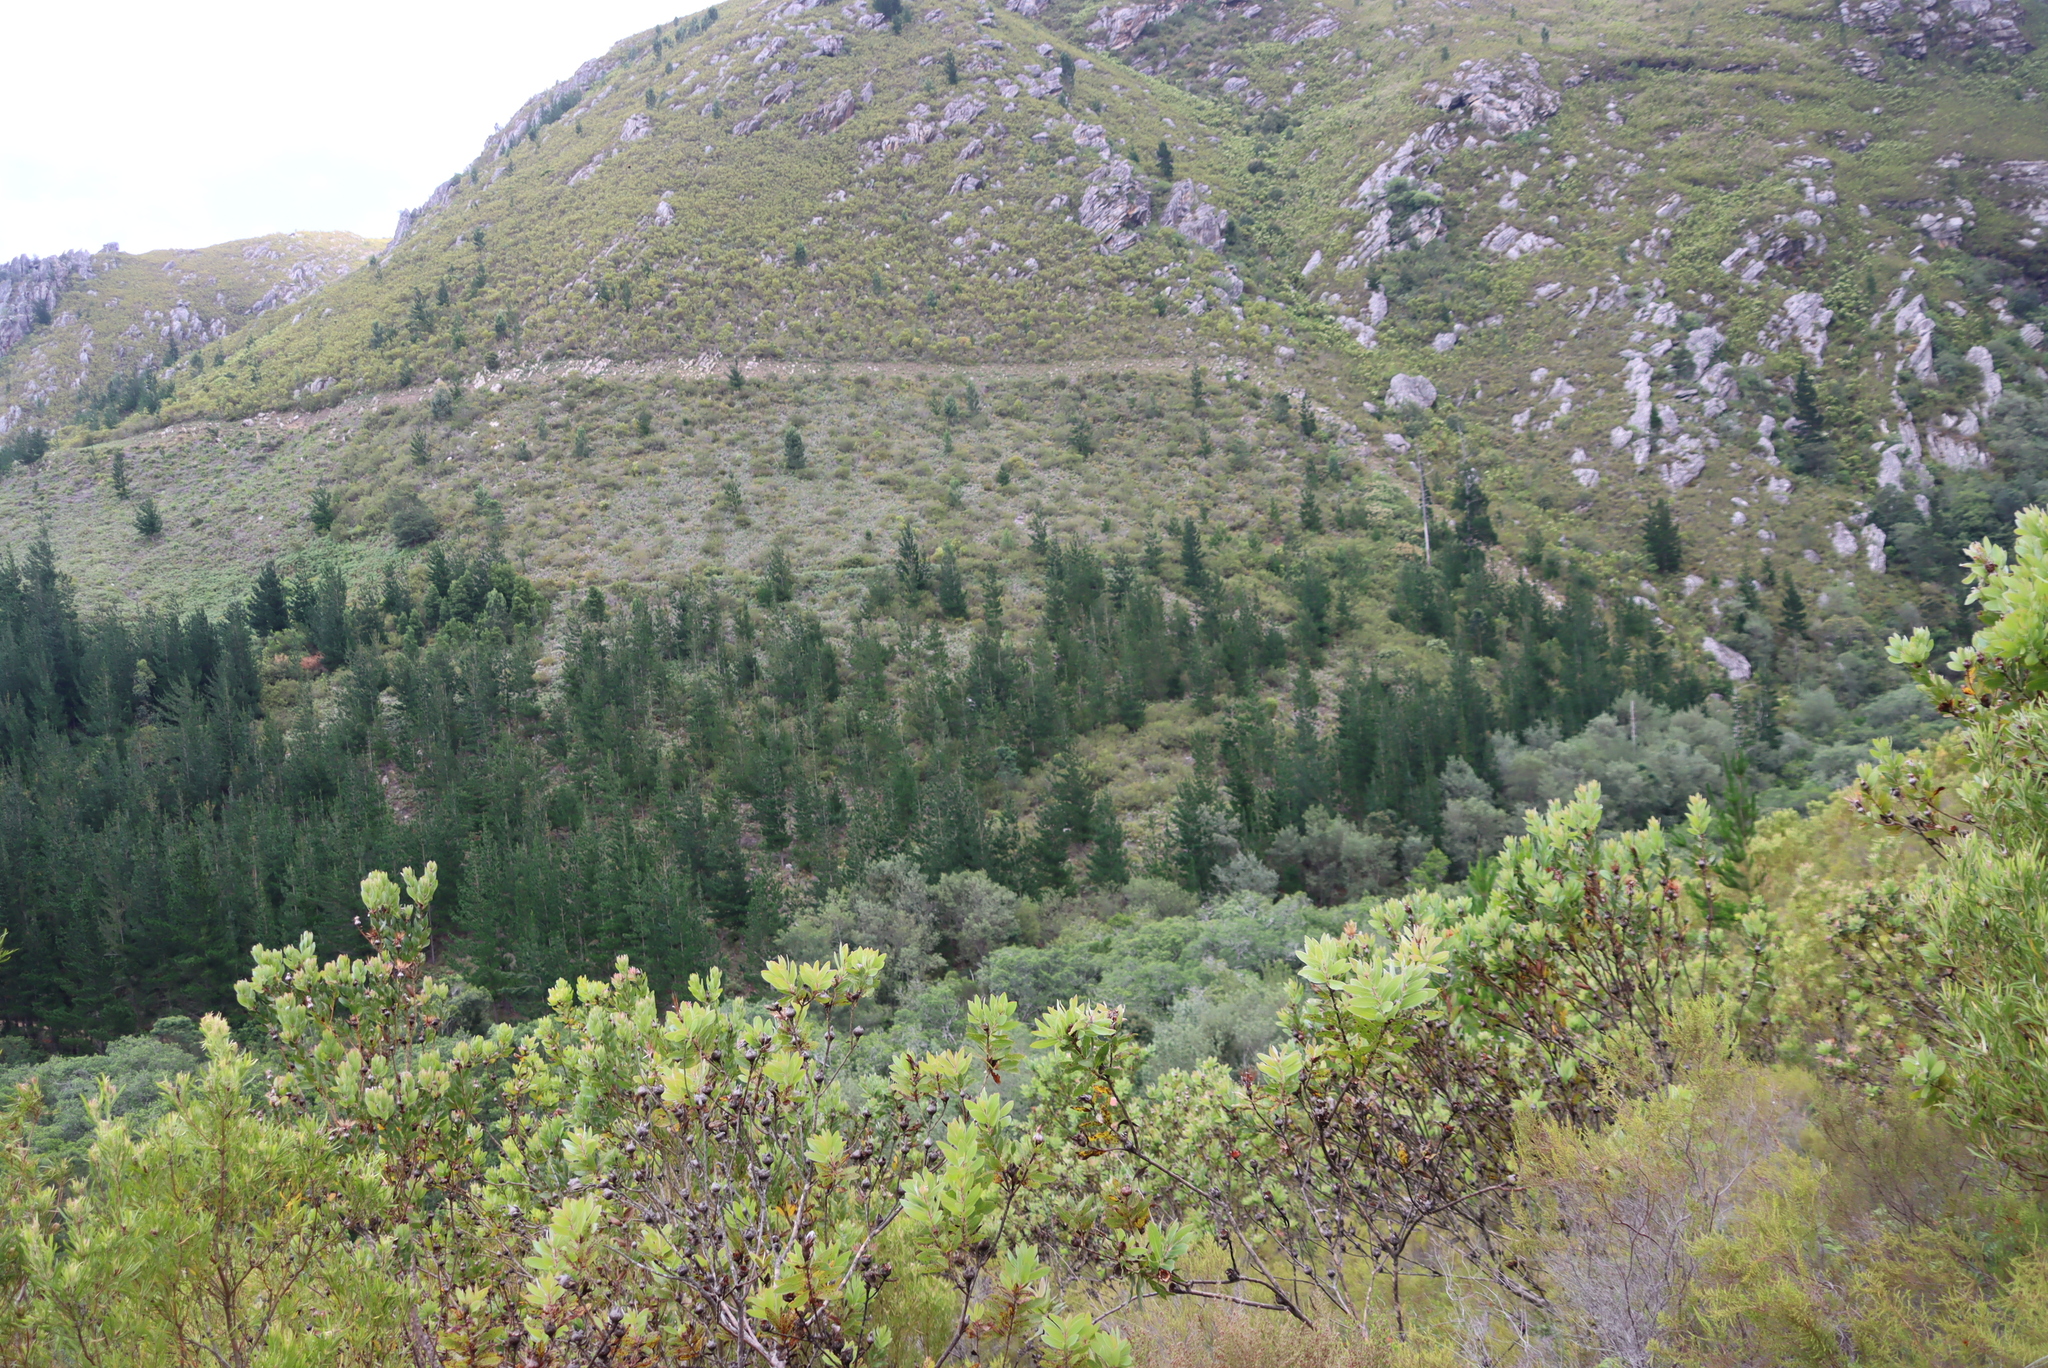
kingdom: Plantae
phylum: Tracheophyta
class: Pinopsida
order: Pinales
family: Pinaceae
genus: Pinus
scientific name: Pinus radiata
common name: Monterey pine
